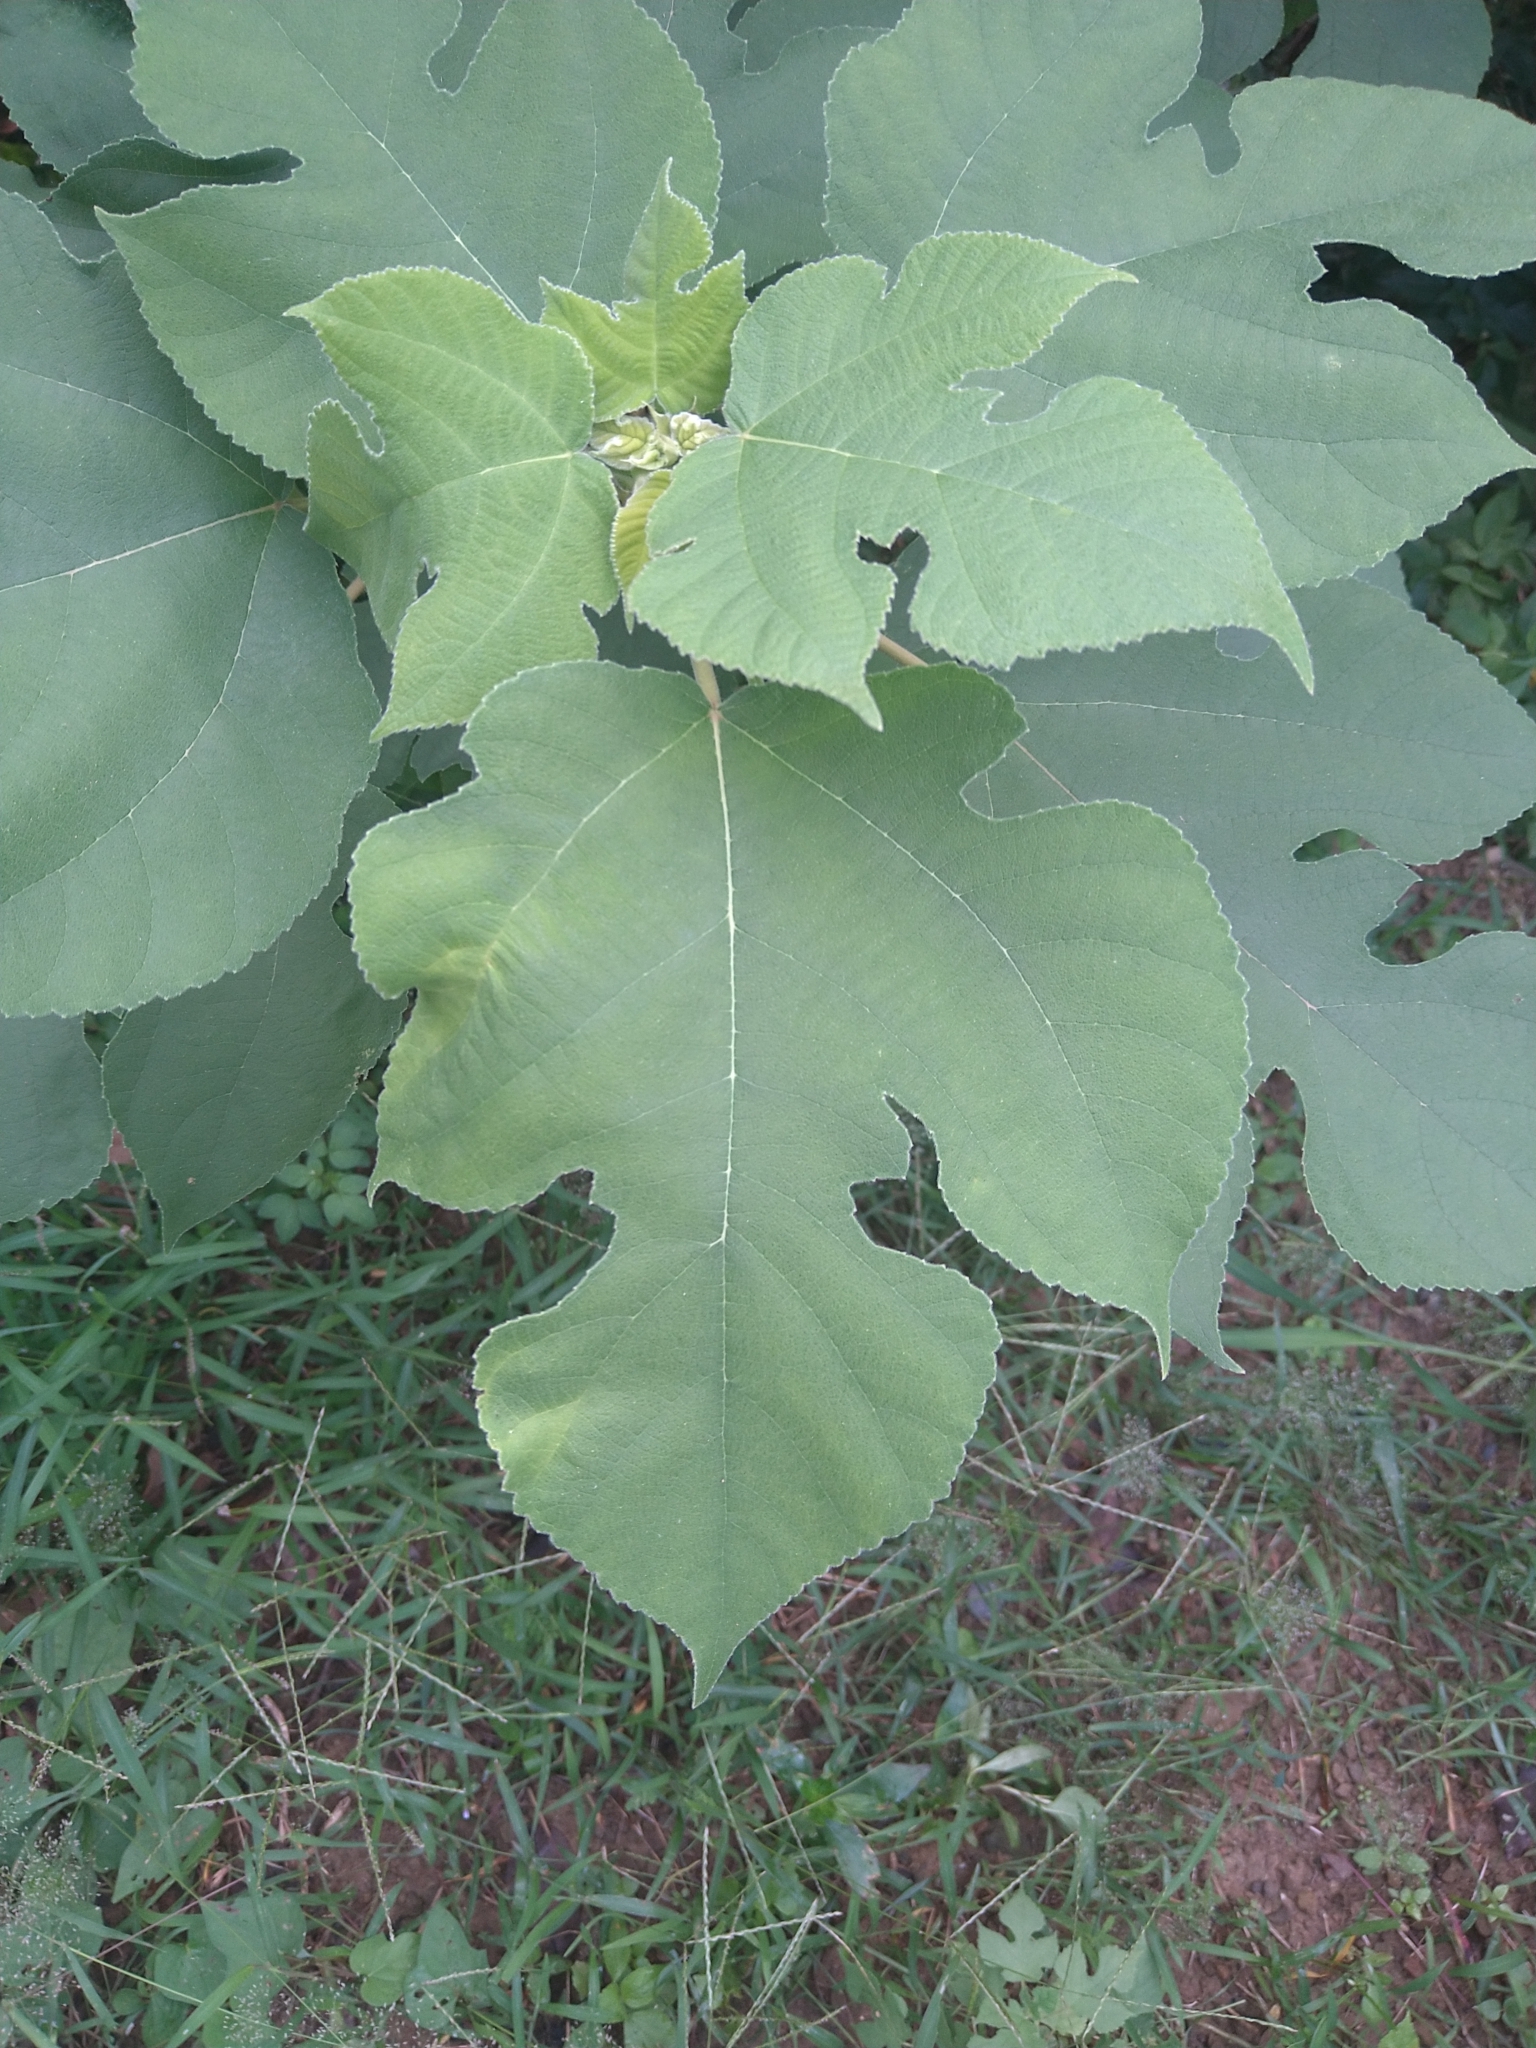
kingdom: Plantae
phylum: Tracheophyta
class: Magnoliopsida
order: Rosales
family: Moraceae
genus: Broussonetia
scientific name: Broussonetia papyrifera
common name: Paper mulberry
